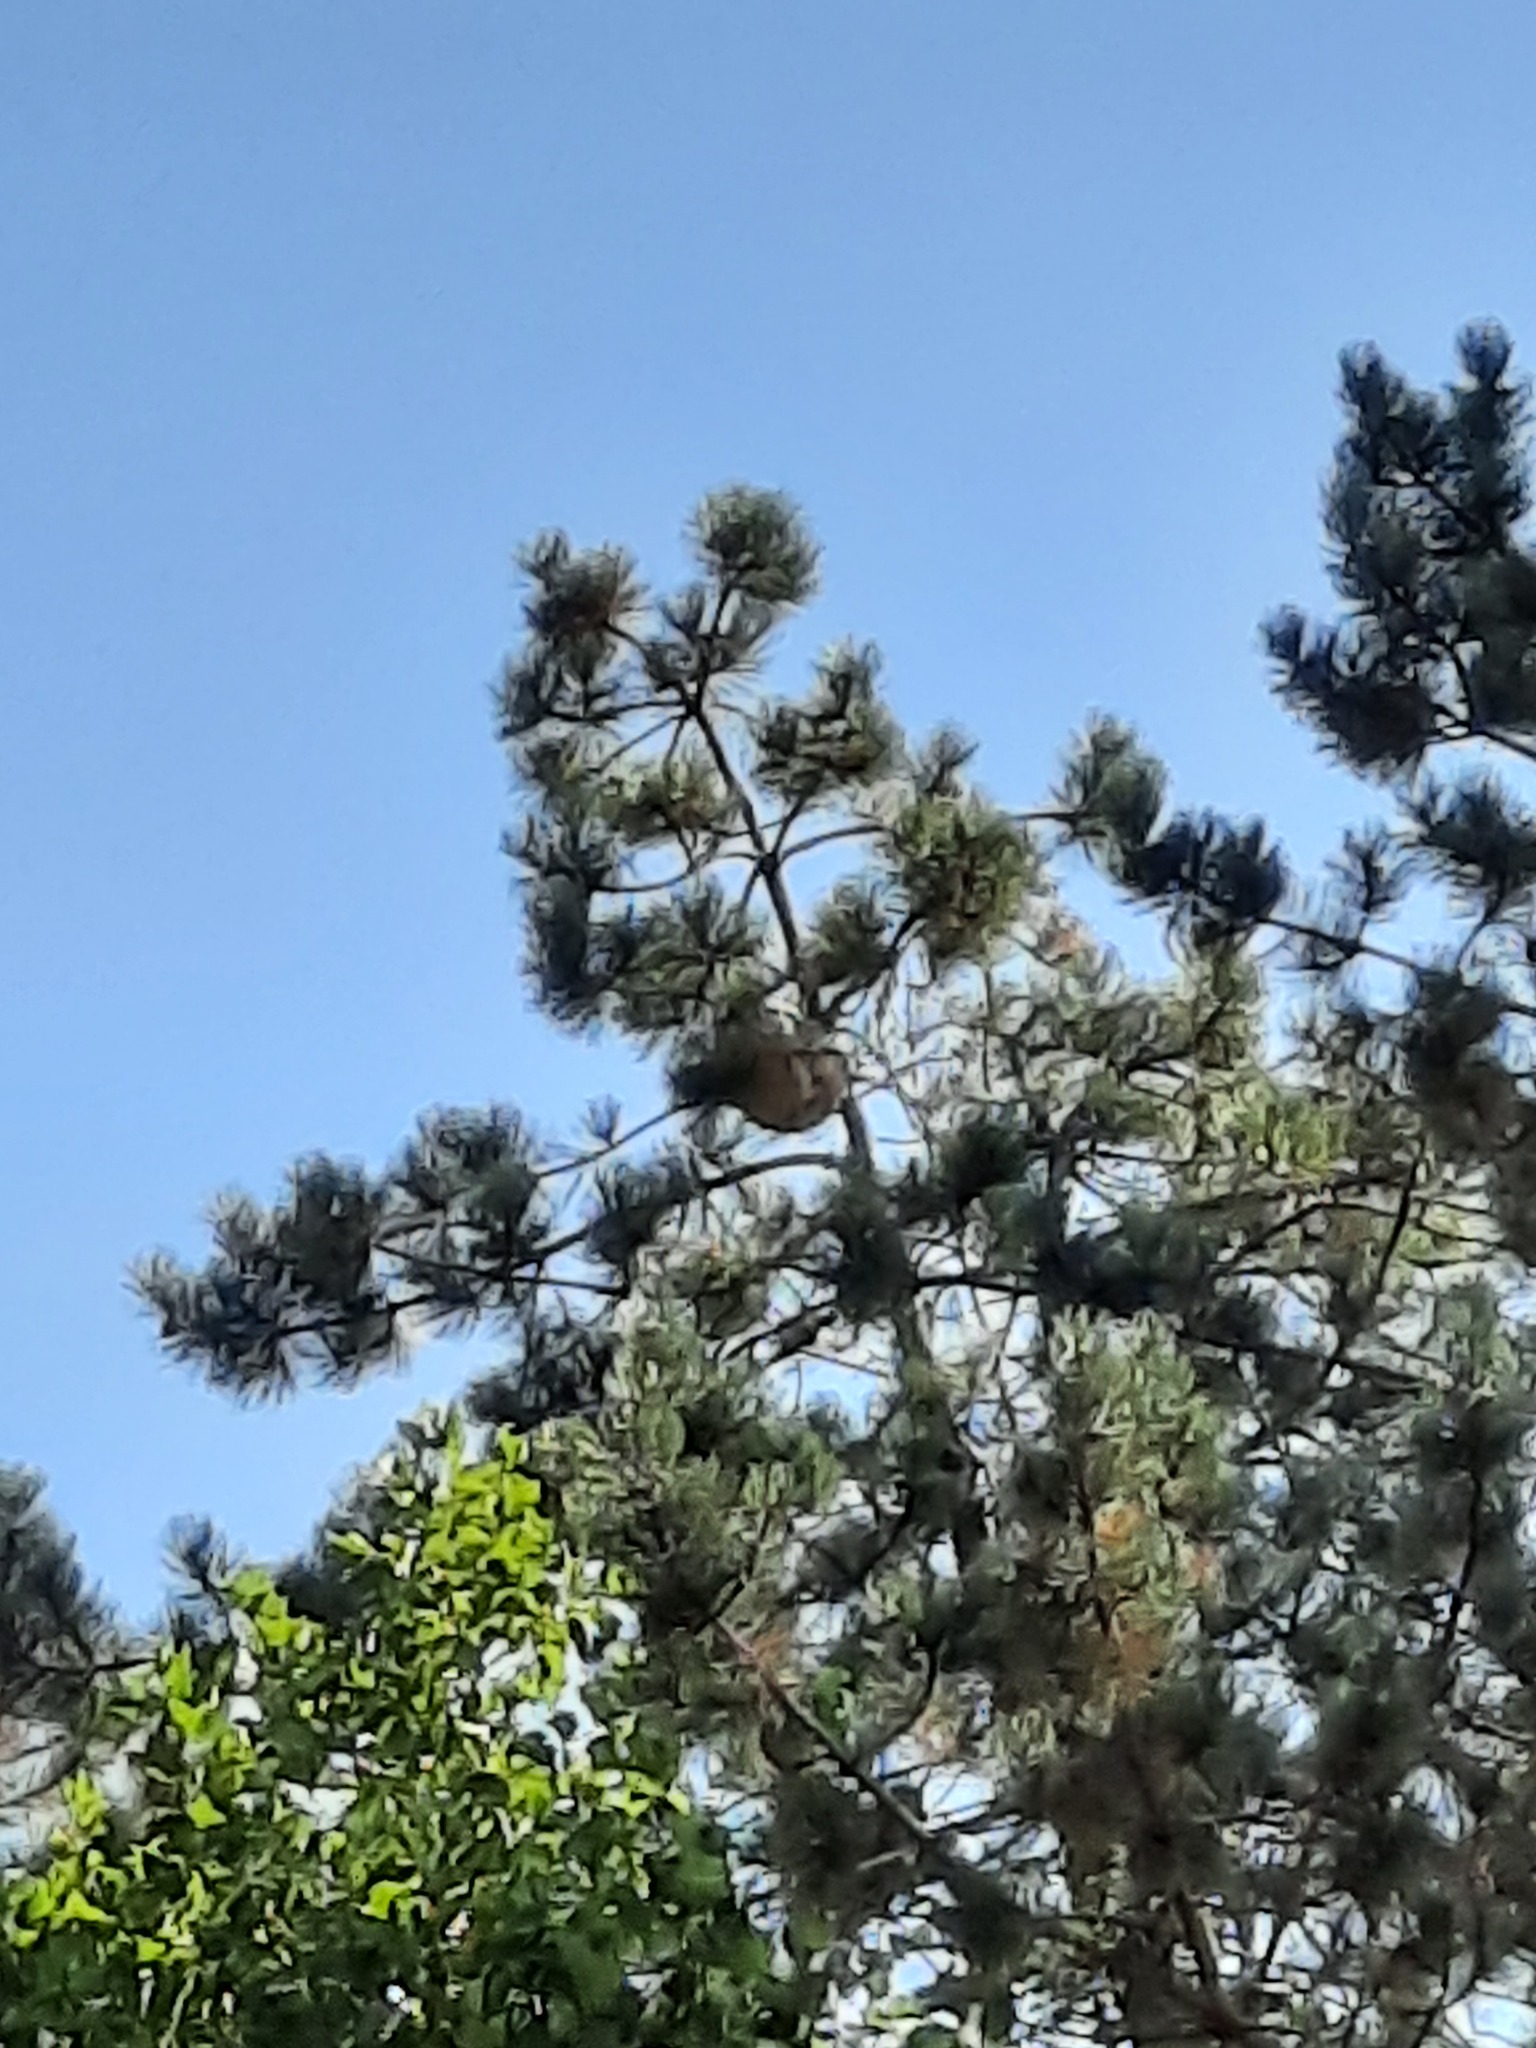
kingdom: Animalia
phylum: Arthropoda
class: Insecta
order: Hymenoptera
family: Vespidae
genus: Vespa
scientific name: Vespa velutina
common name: Asian hornet
